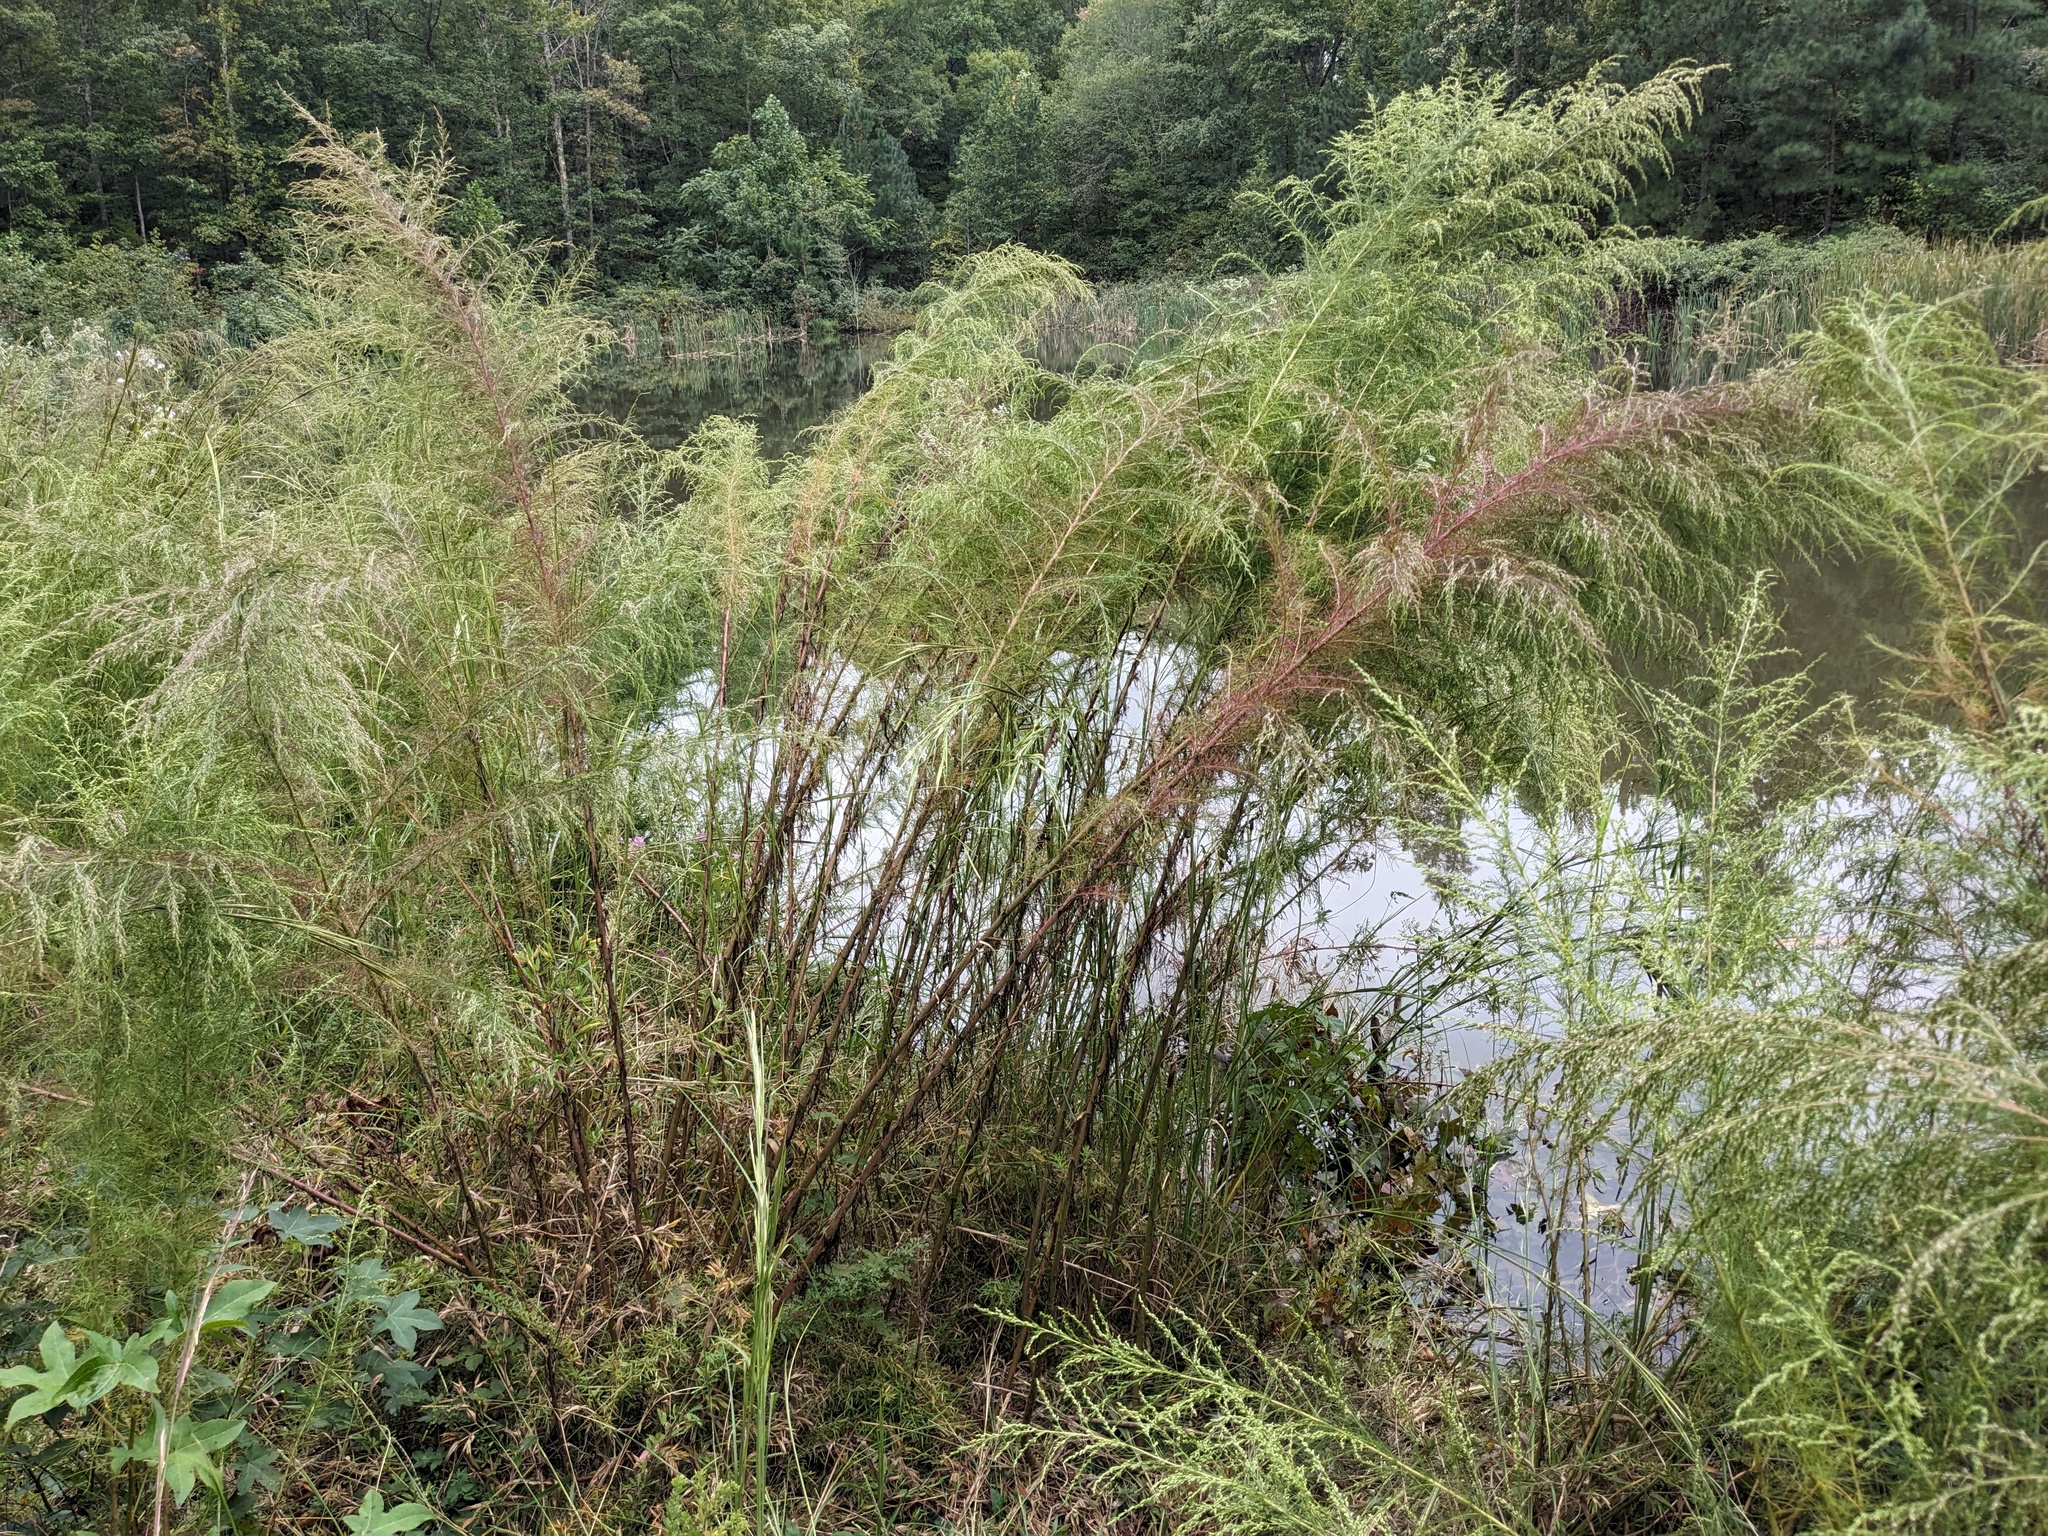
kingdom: Plantae
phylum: Tracheophyta
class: Magnoliopsida
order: Asterales
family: Asteraceae
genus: Eupatorium
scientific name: Eupatorium capillifolium
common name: Dog-fennel
